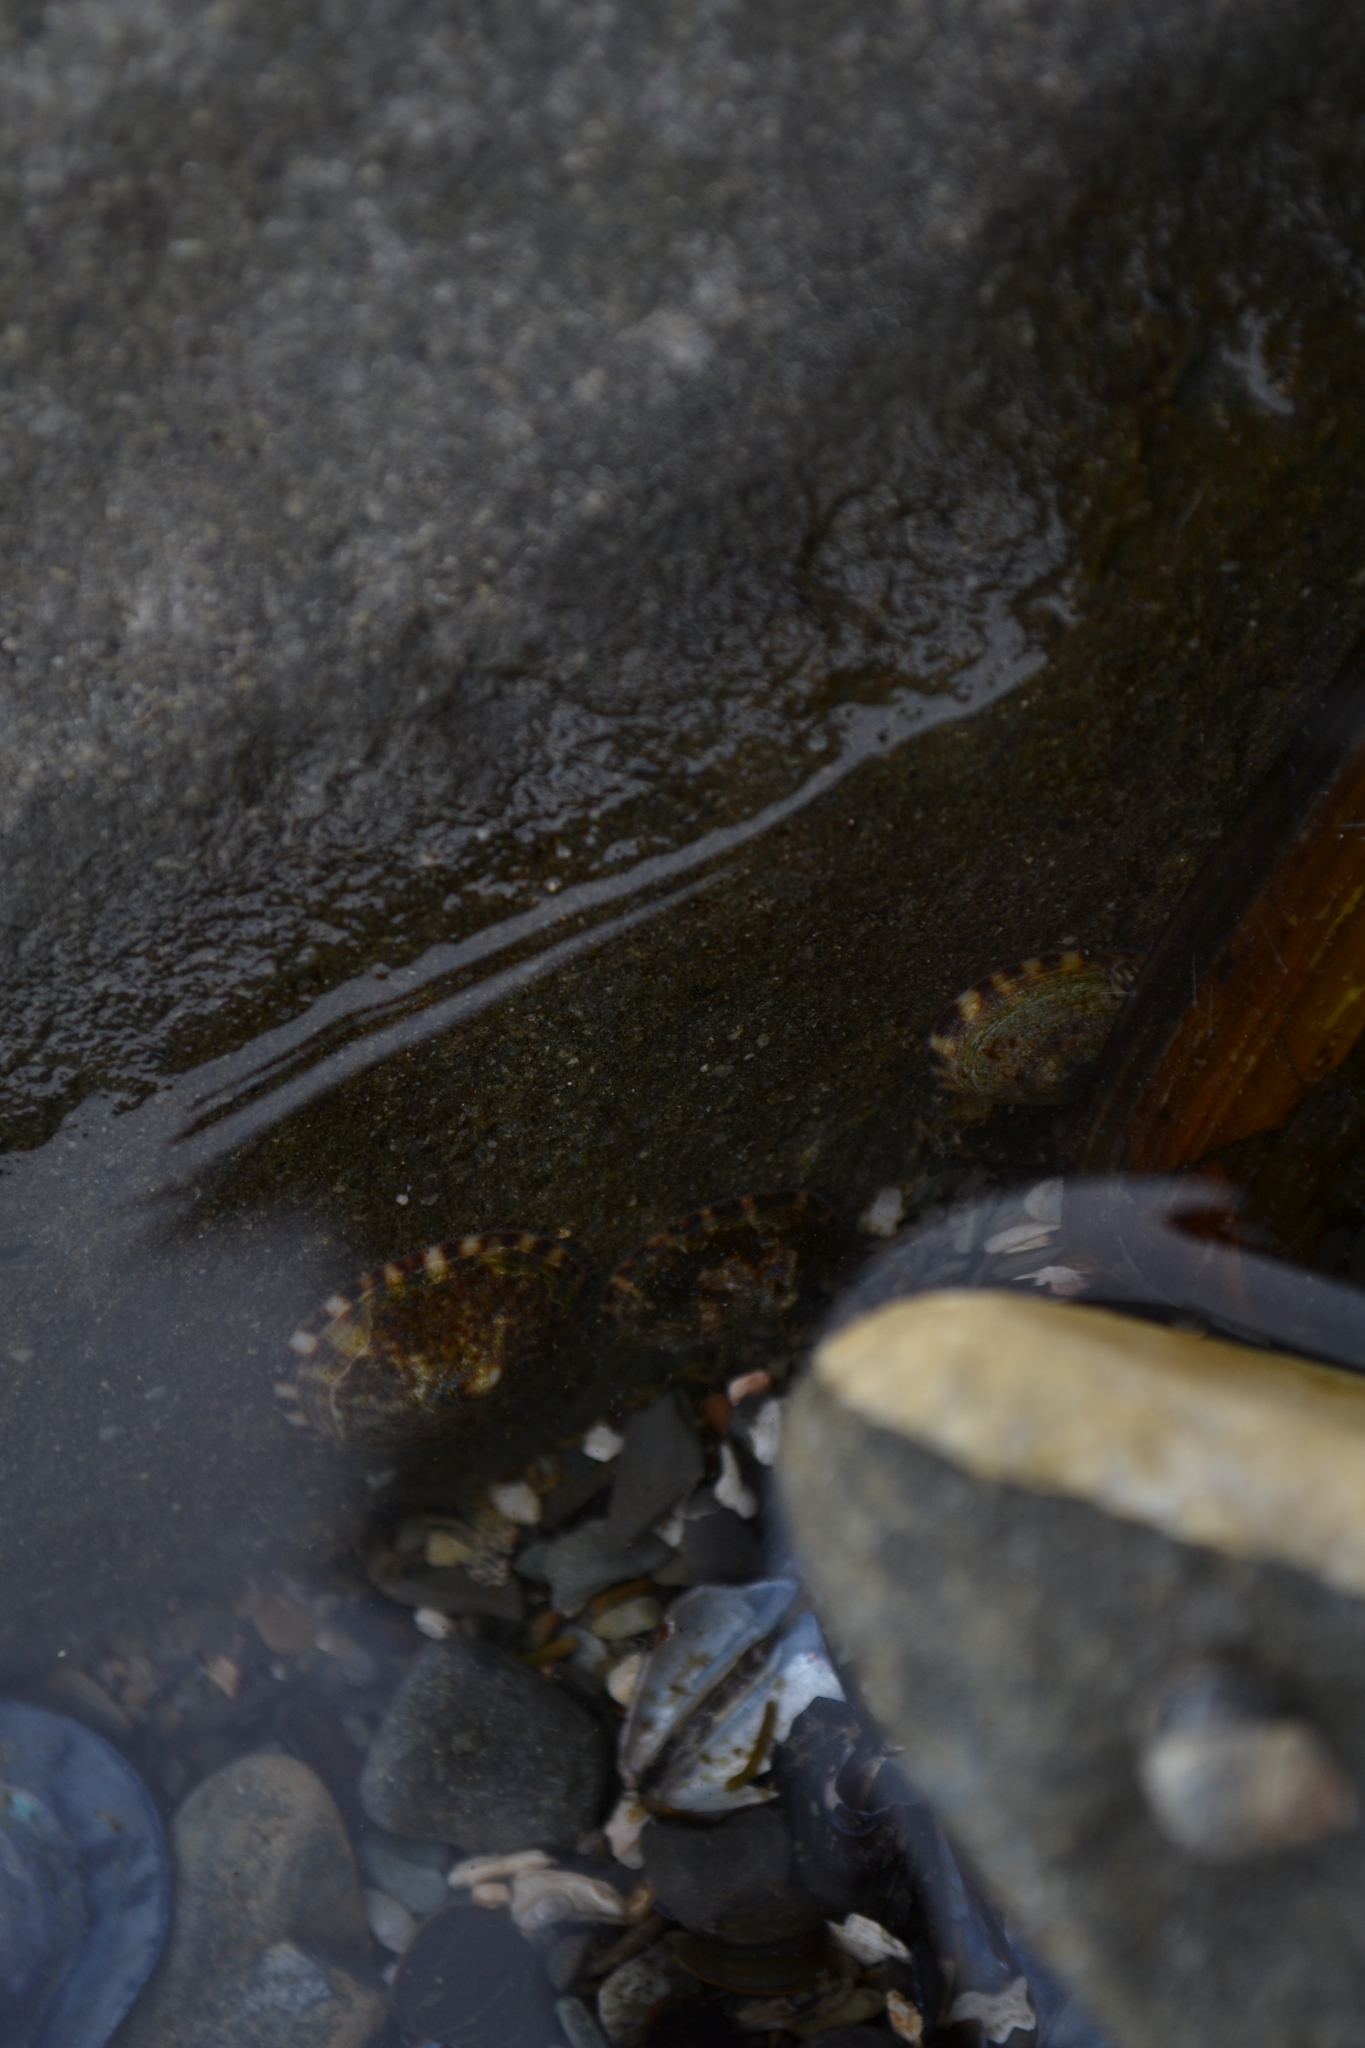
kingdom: Animalia
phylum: Mollusca
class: Gastropoda
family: Lottiidae
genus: Testudinalia
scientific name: Testudinalia testudinalis
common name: Common tortoiseshell limpet
